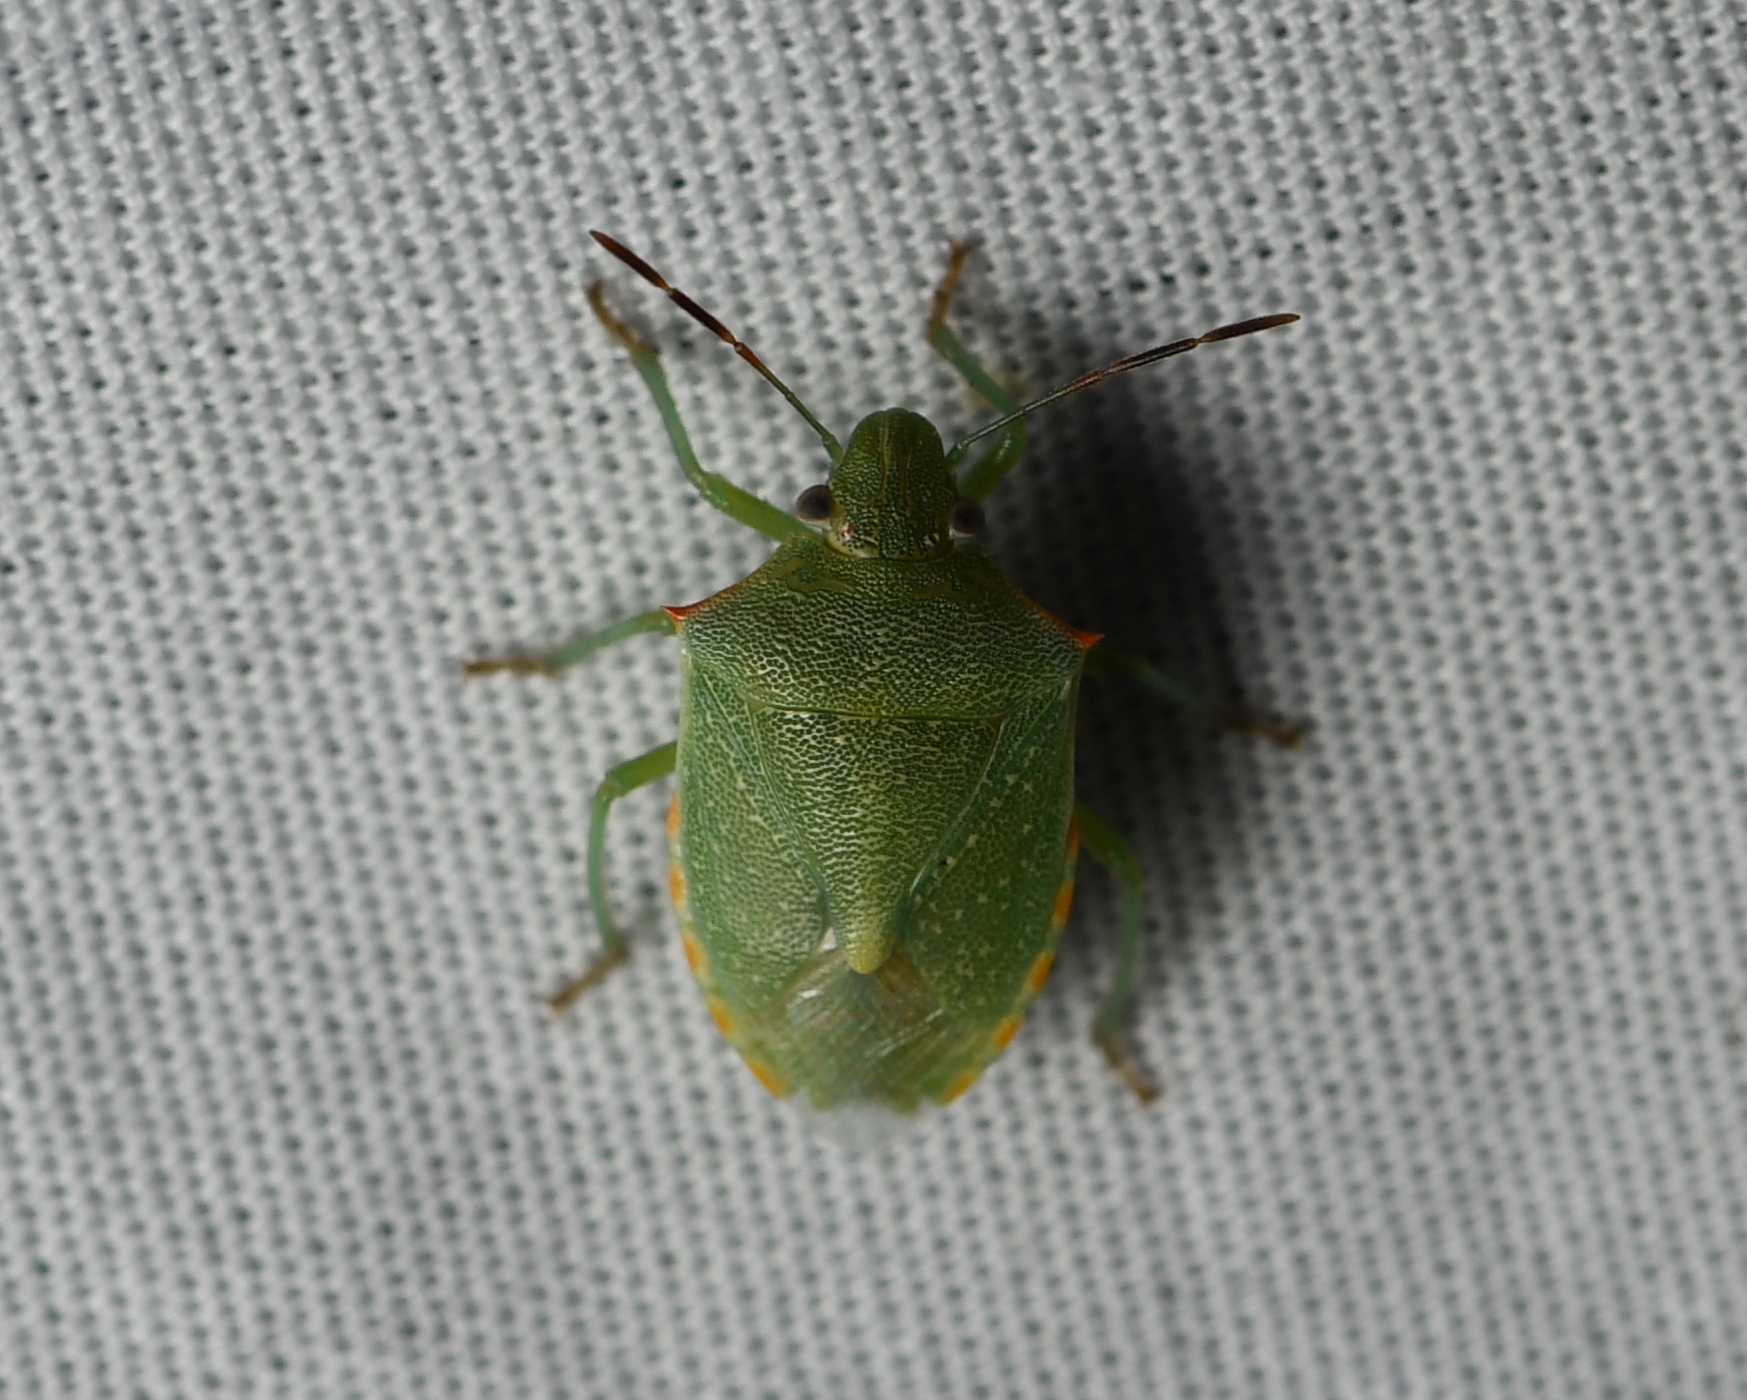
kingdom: Animalia
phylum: Arthropoda
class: Insecta
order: Hemiptera
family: Pentatomidae
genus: Thyanta
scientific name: Thyanta custator
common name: Stink bug
